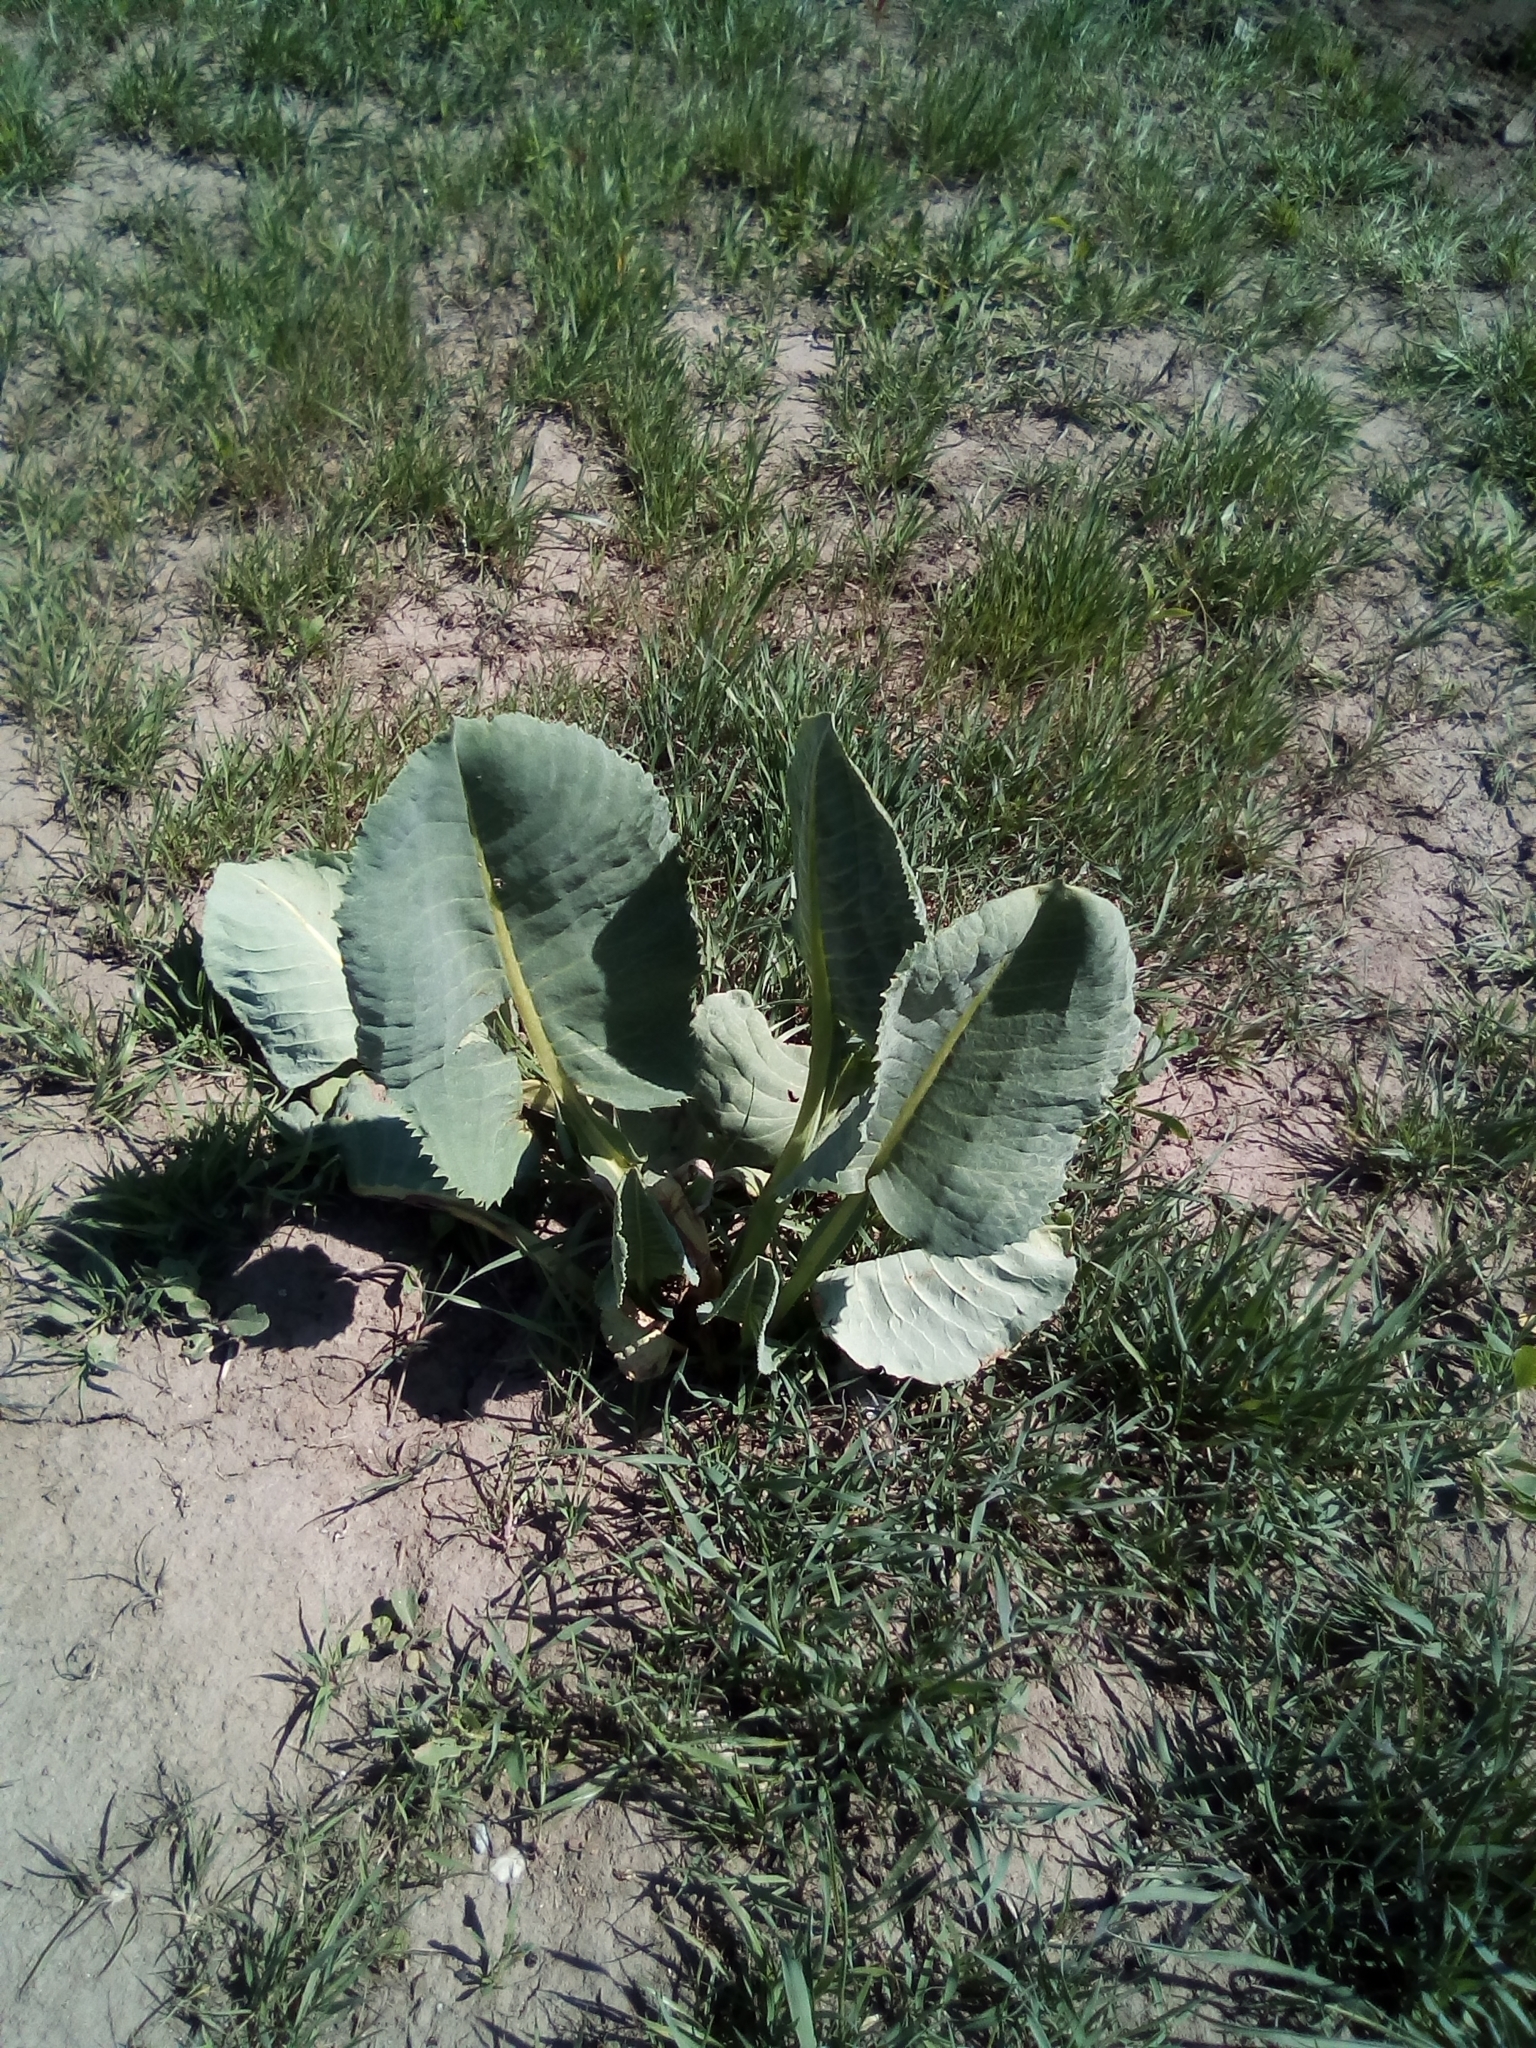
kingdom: Plantae
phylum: Tracheophyta
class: Magnoliopsida
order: Asterales
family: Asteraceae
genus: Ligularia
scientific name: Ligularia heterophylla
